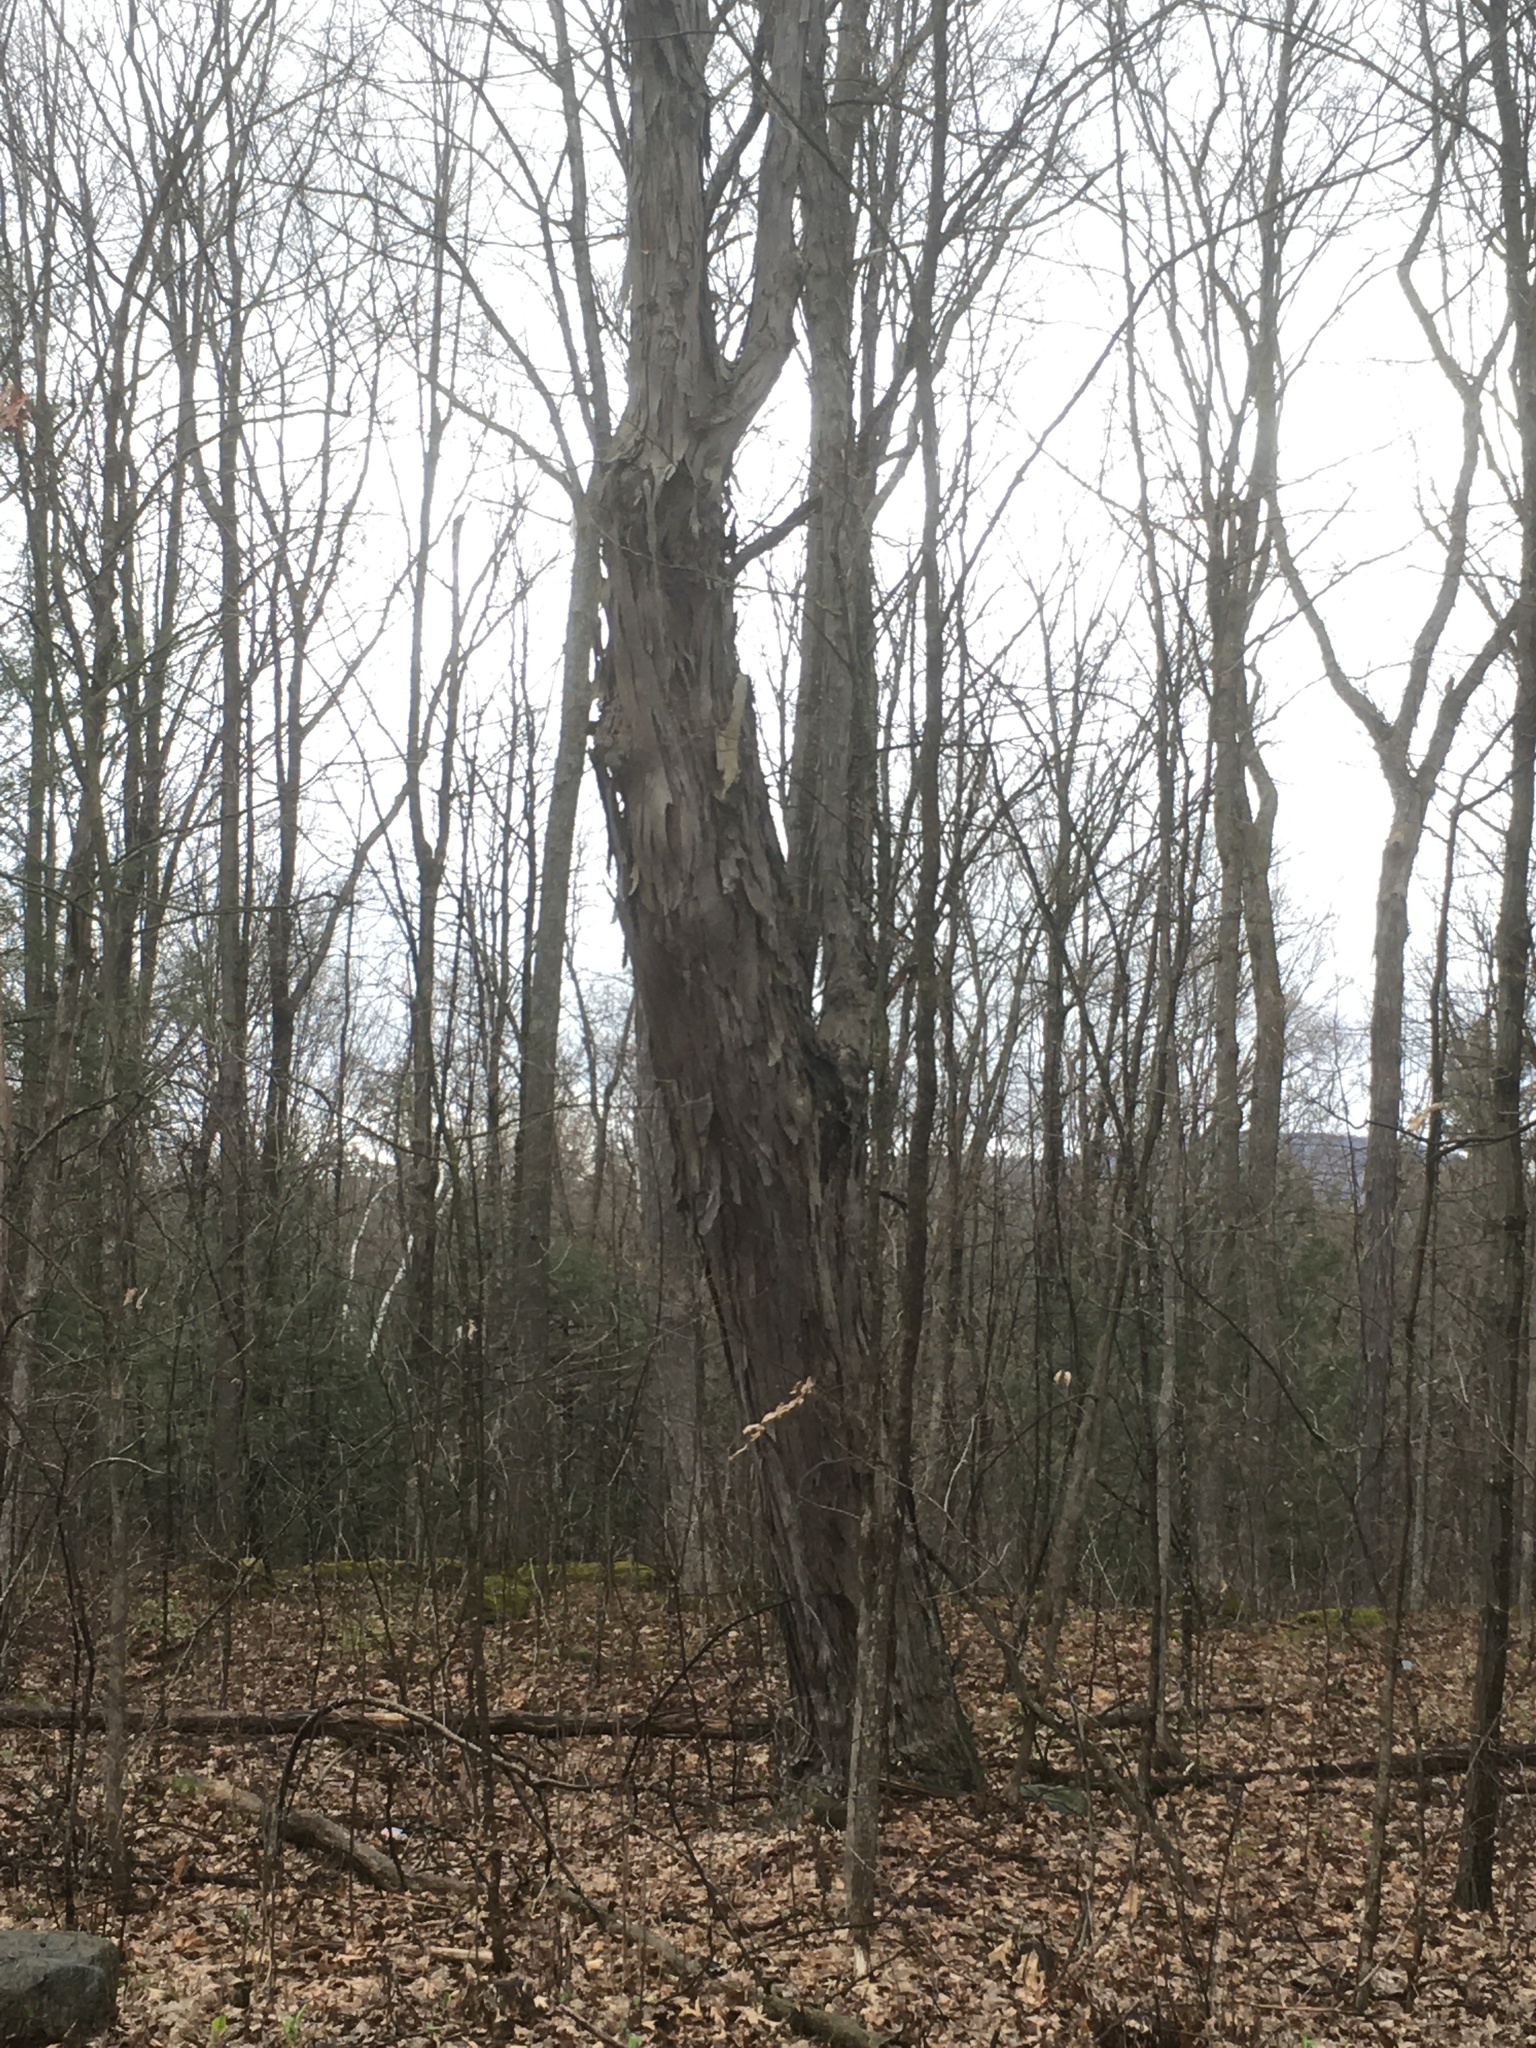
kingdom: Plantae
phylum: Tracheophyta
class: Magnoliopsida
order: Fagales
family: Juglandaceae
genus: Carya
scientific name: Carya ovata
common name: Shagbark hickory
